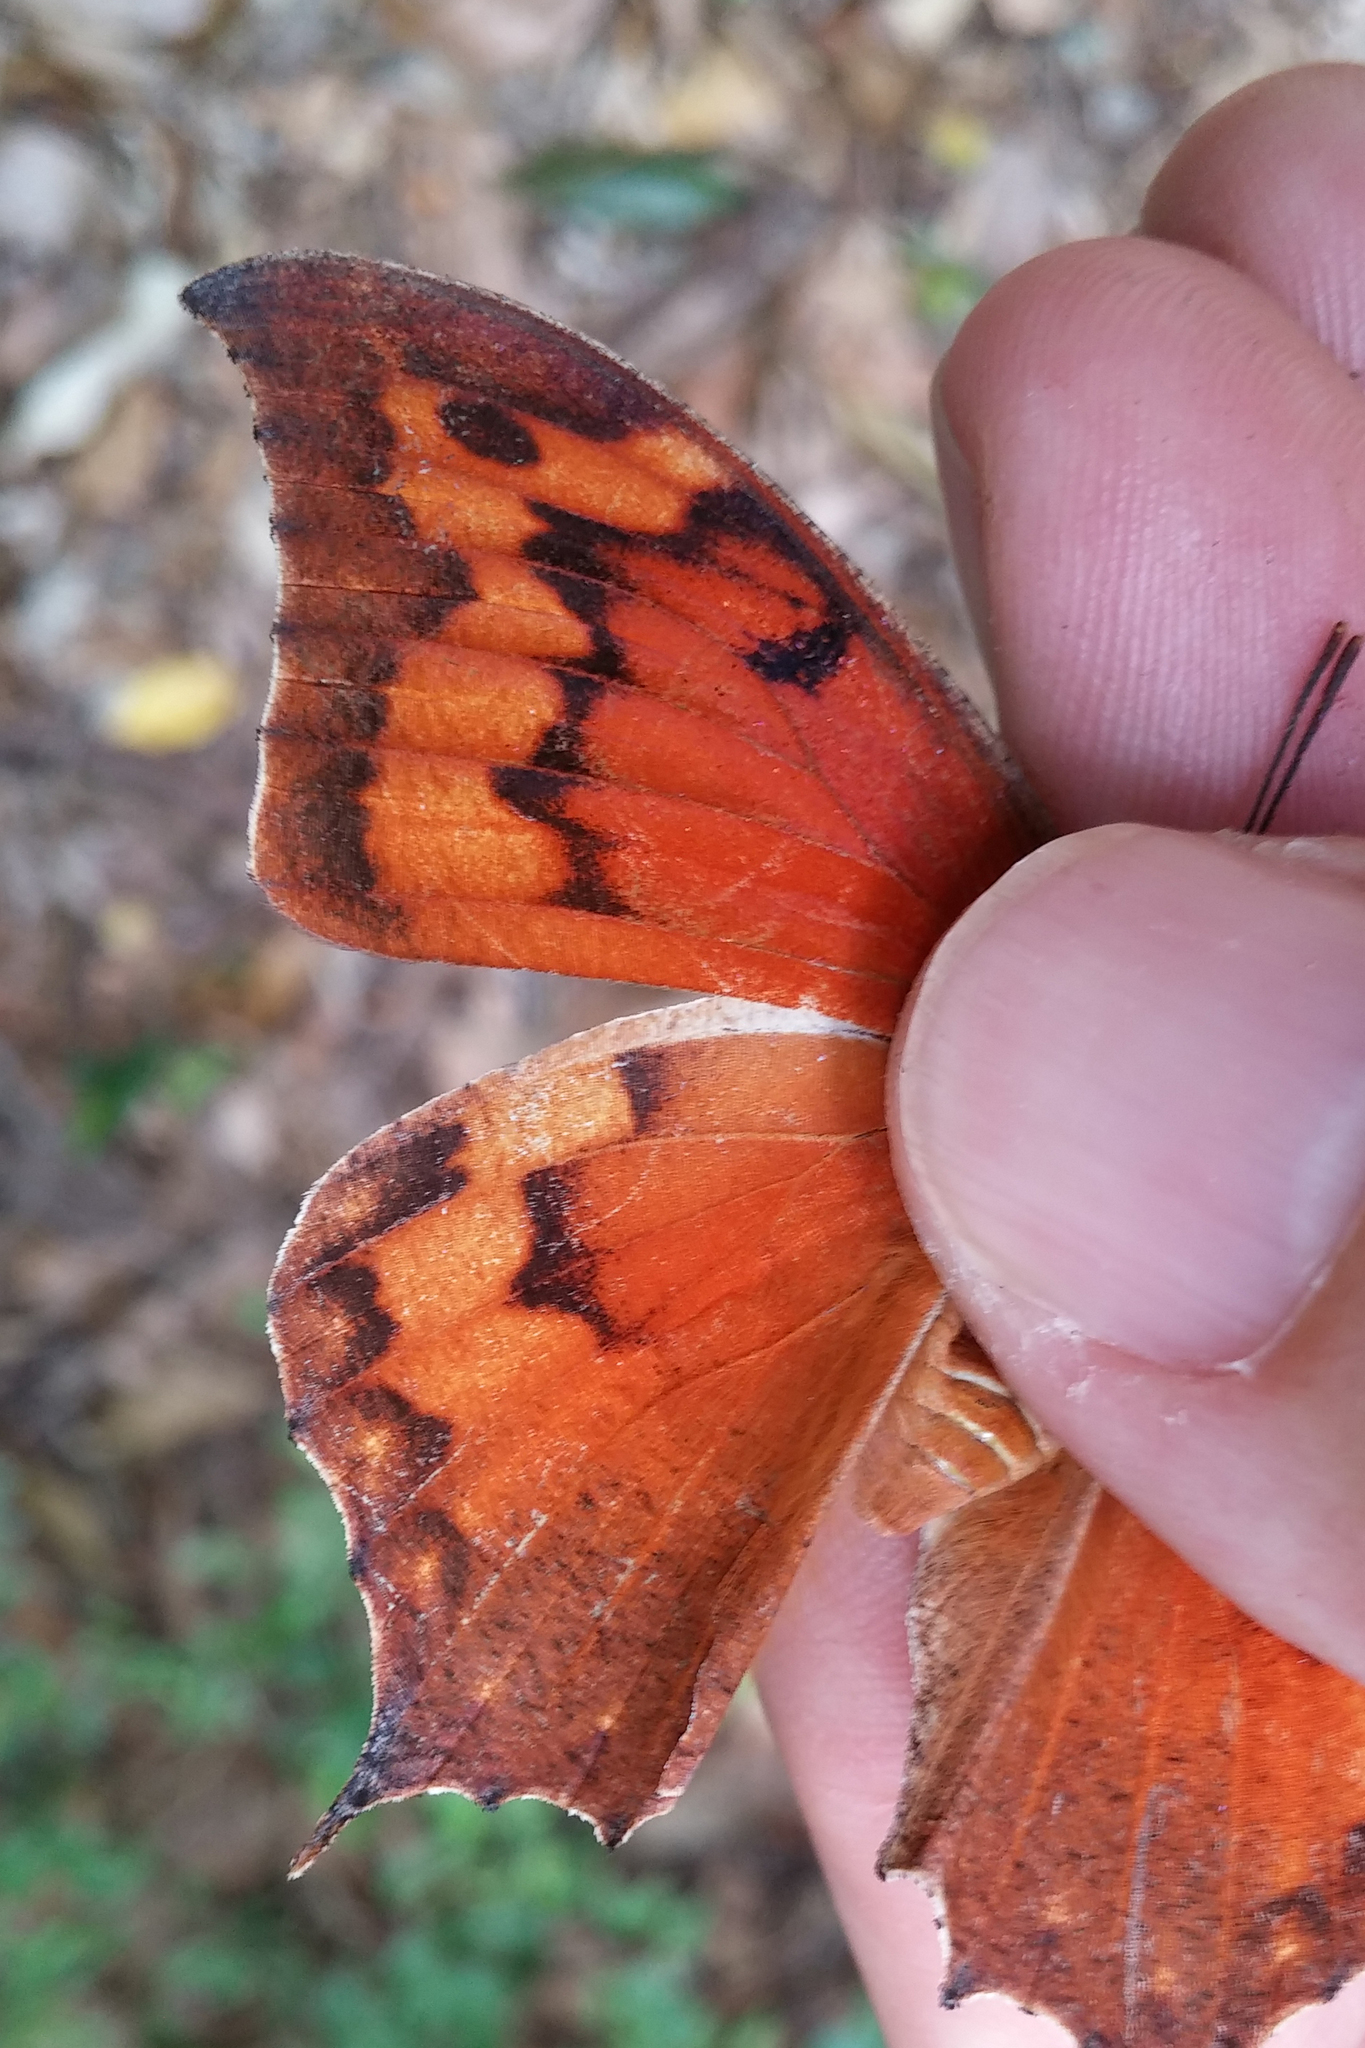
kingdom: Animalia
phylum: Arthropoda
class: Insecta
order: Lepidoptera
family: Nymphalidae
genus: Anaea
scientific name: Anaea troglodyta
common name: Florida leafwing
